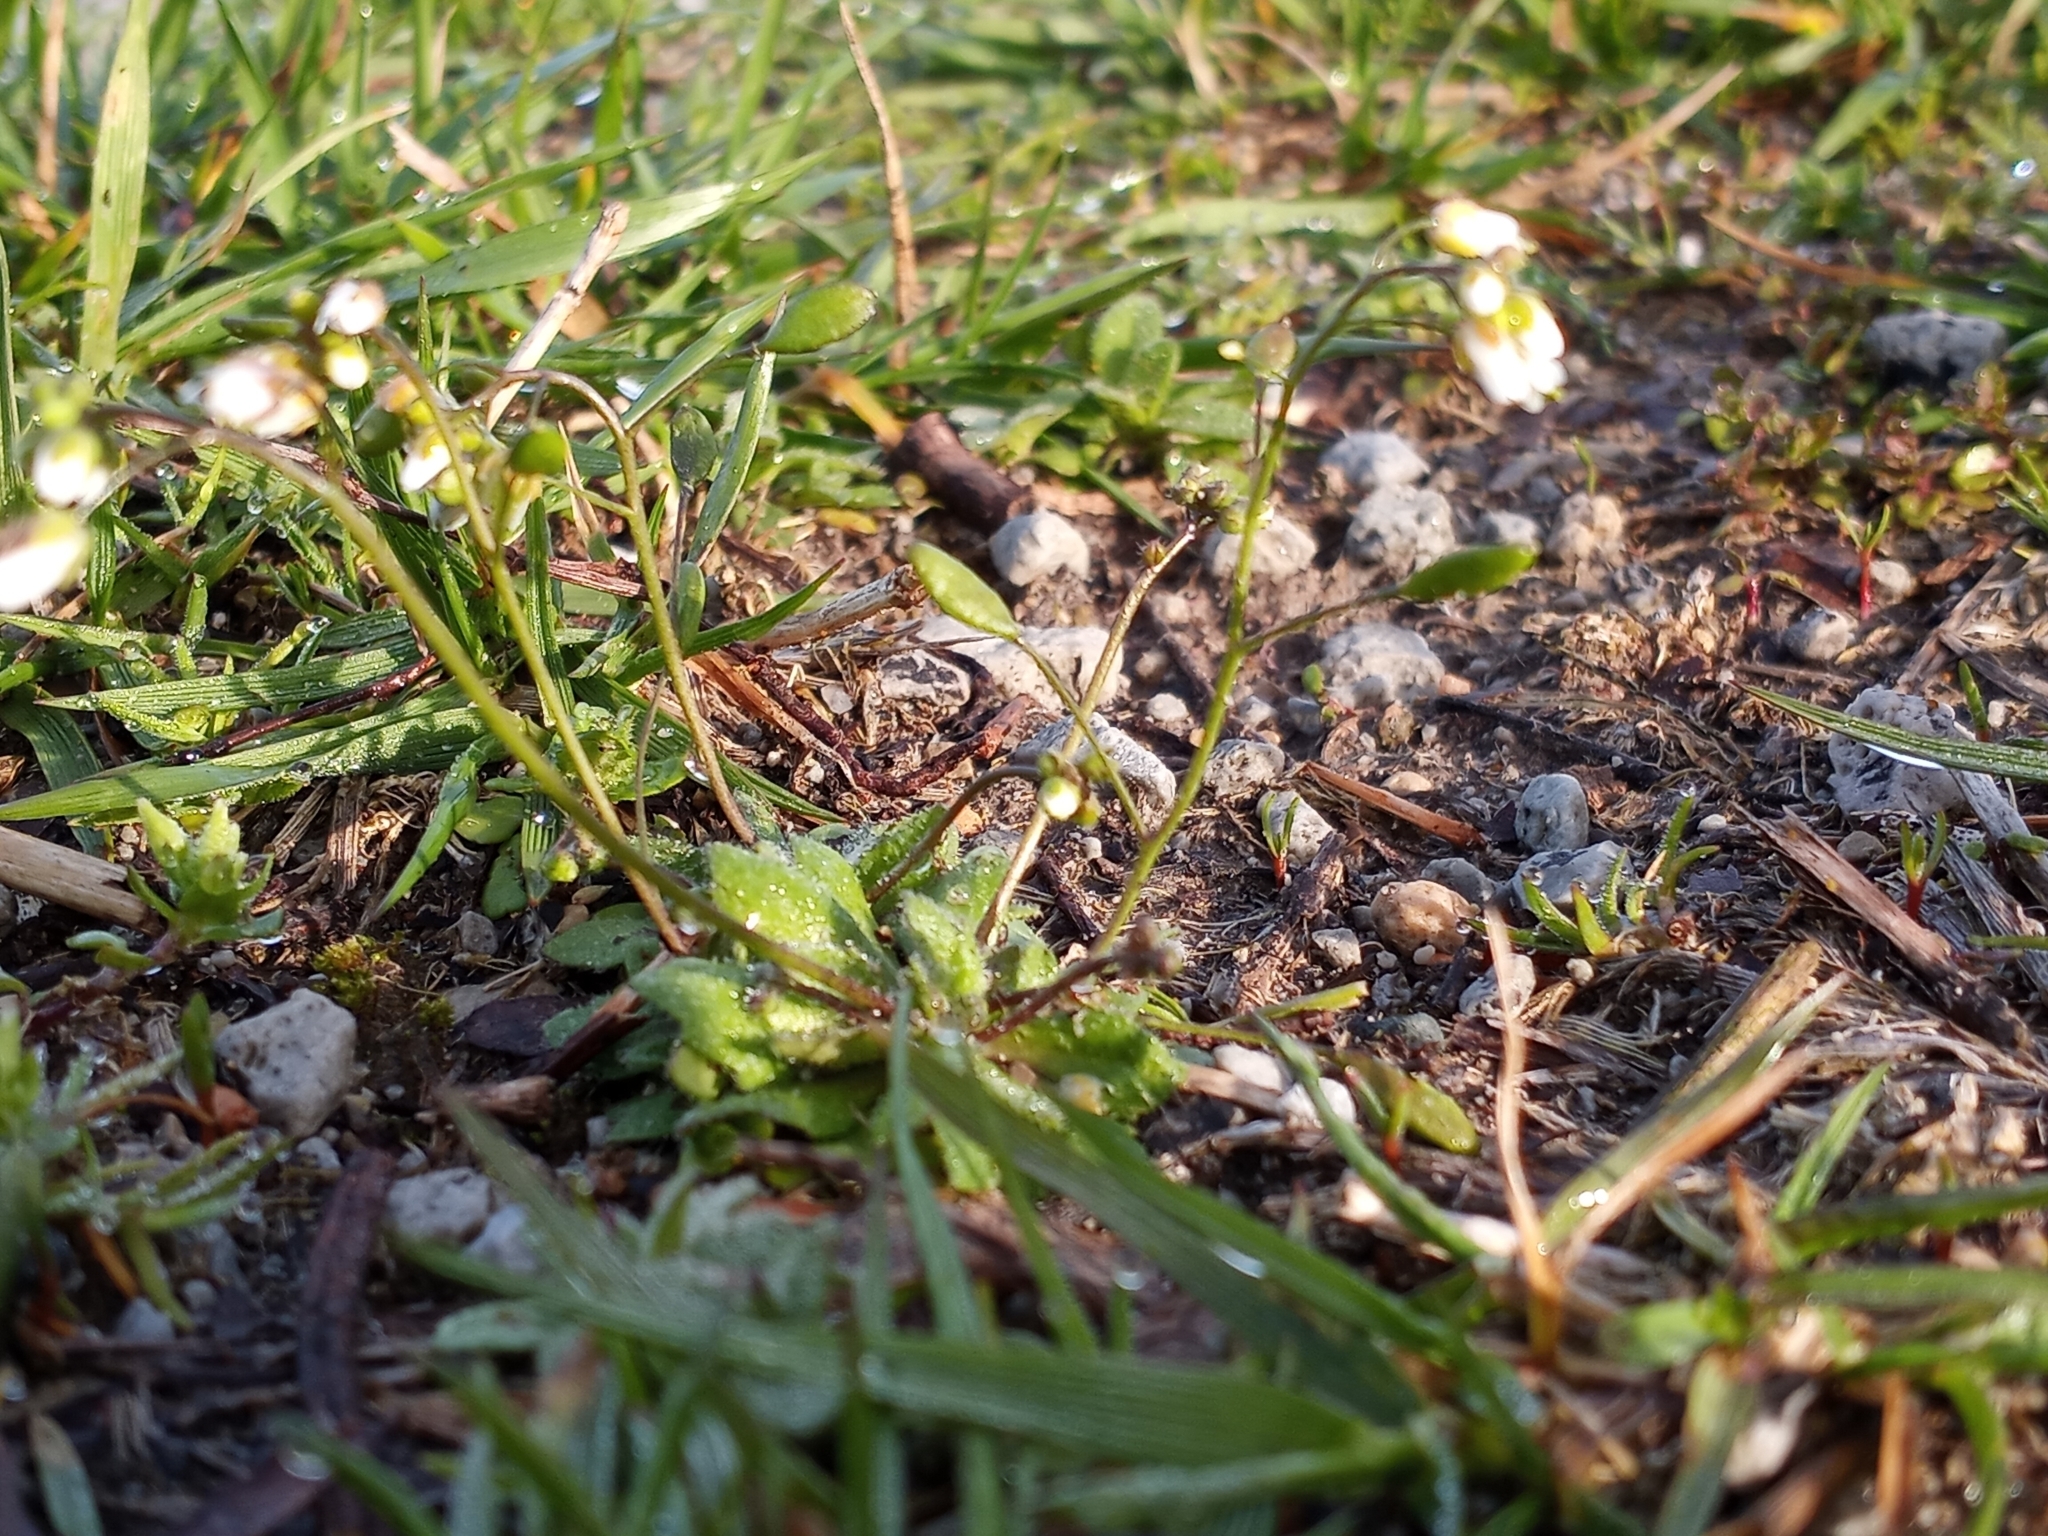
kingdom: Plantae
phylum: Tracheophyta
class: Magnoliopsida
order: Brassicales
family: Brassicaceae
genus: Draba
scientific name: Draba verna
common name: Spring draba
